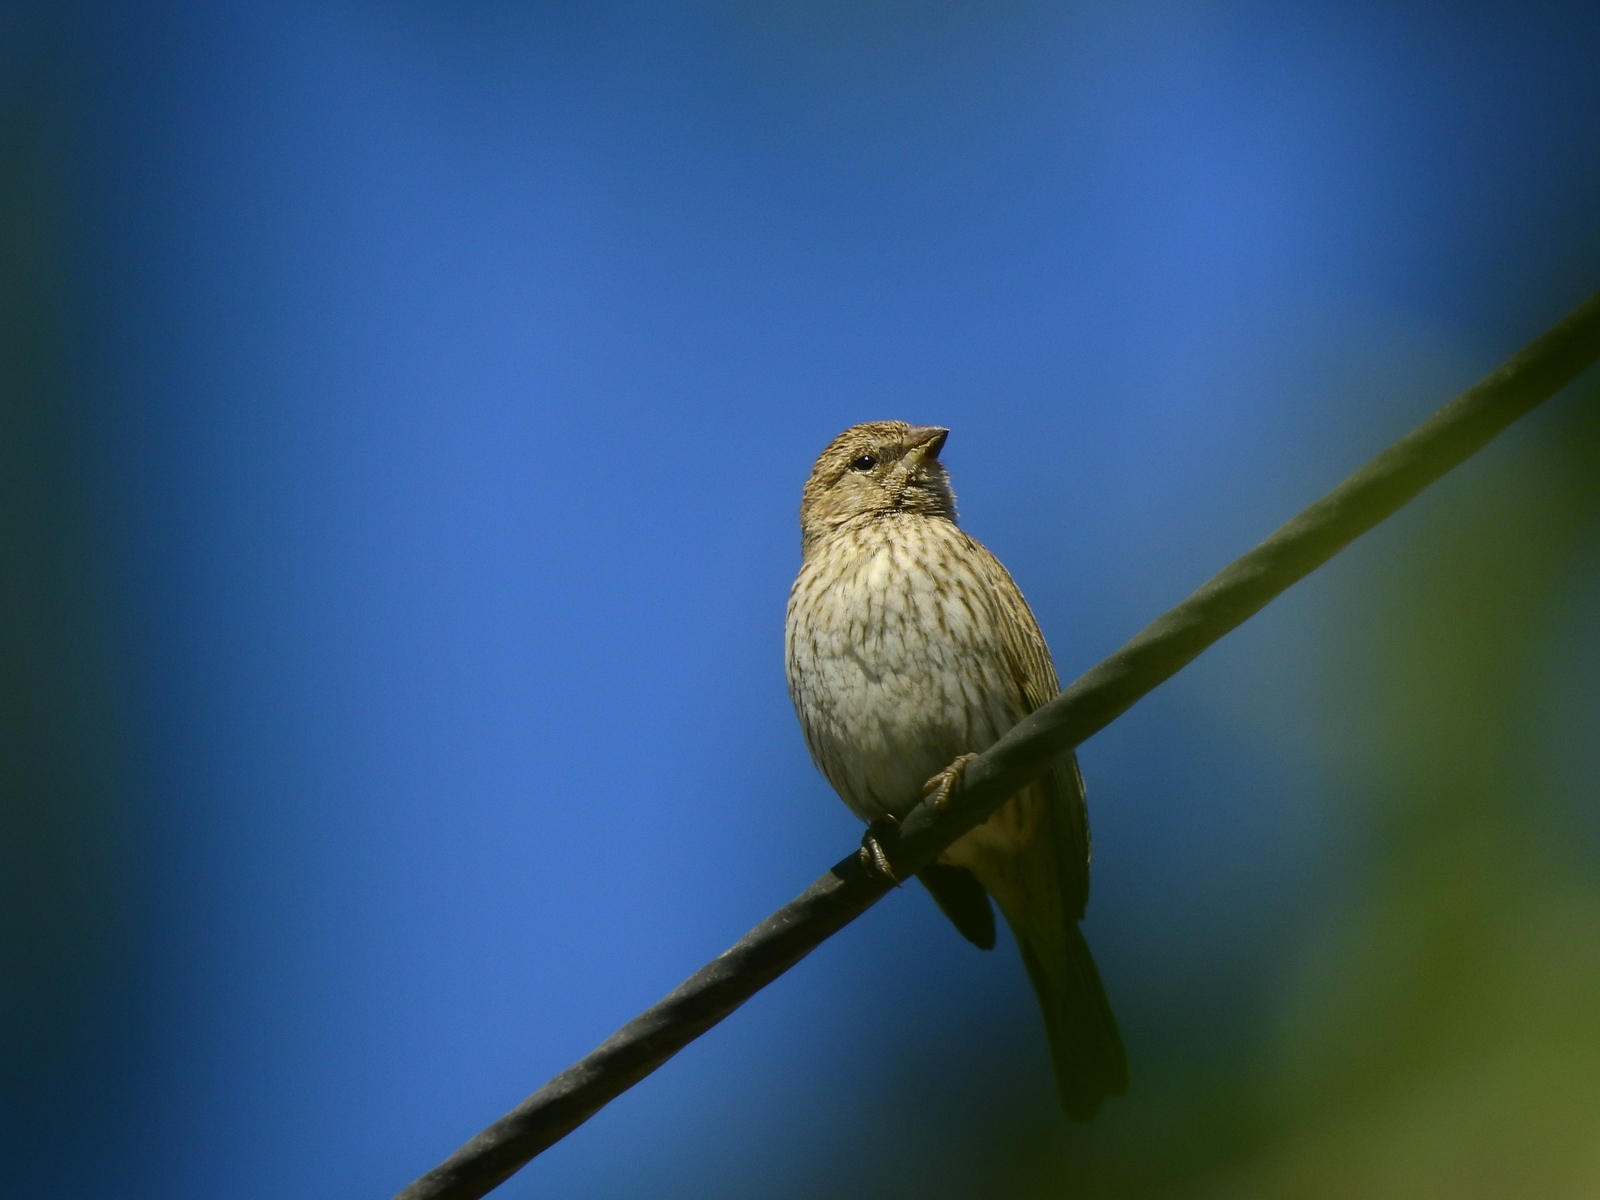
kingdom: Animalia
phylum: Chordata
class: Aves
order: Passeriformes
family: Thraupidae
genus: Sicalis
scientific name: Sicalis flaveola
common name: Saffron finch
